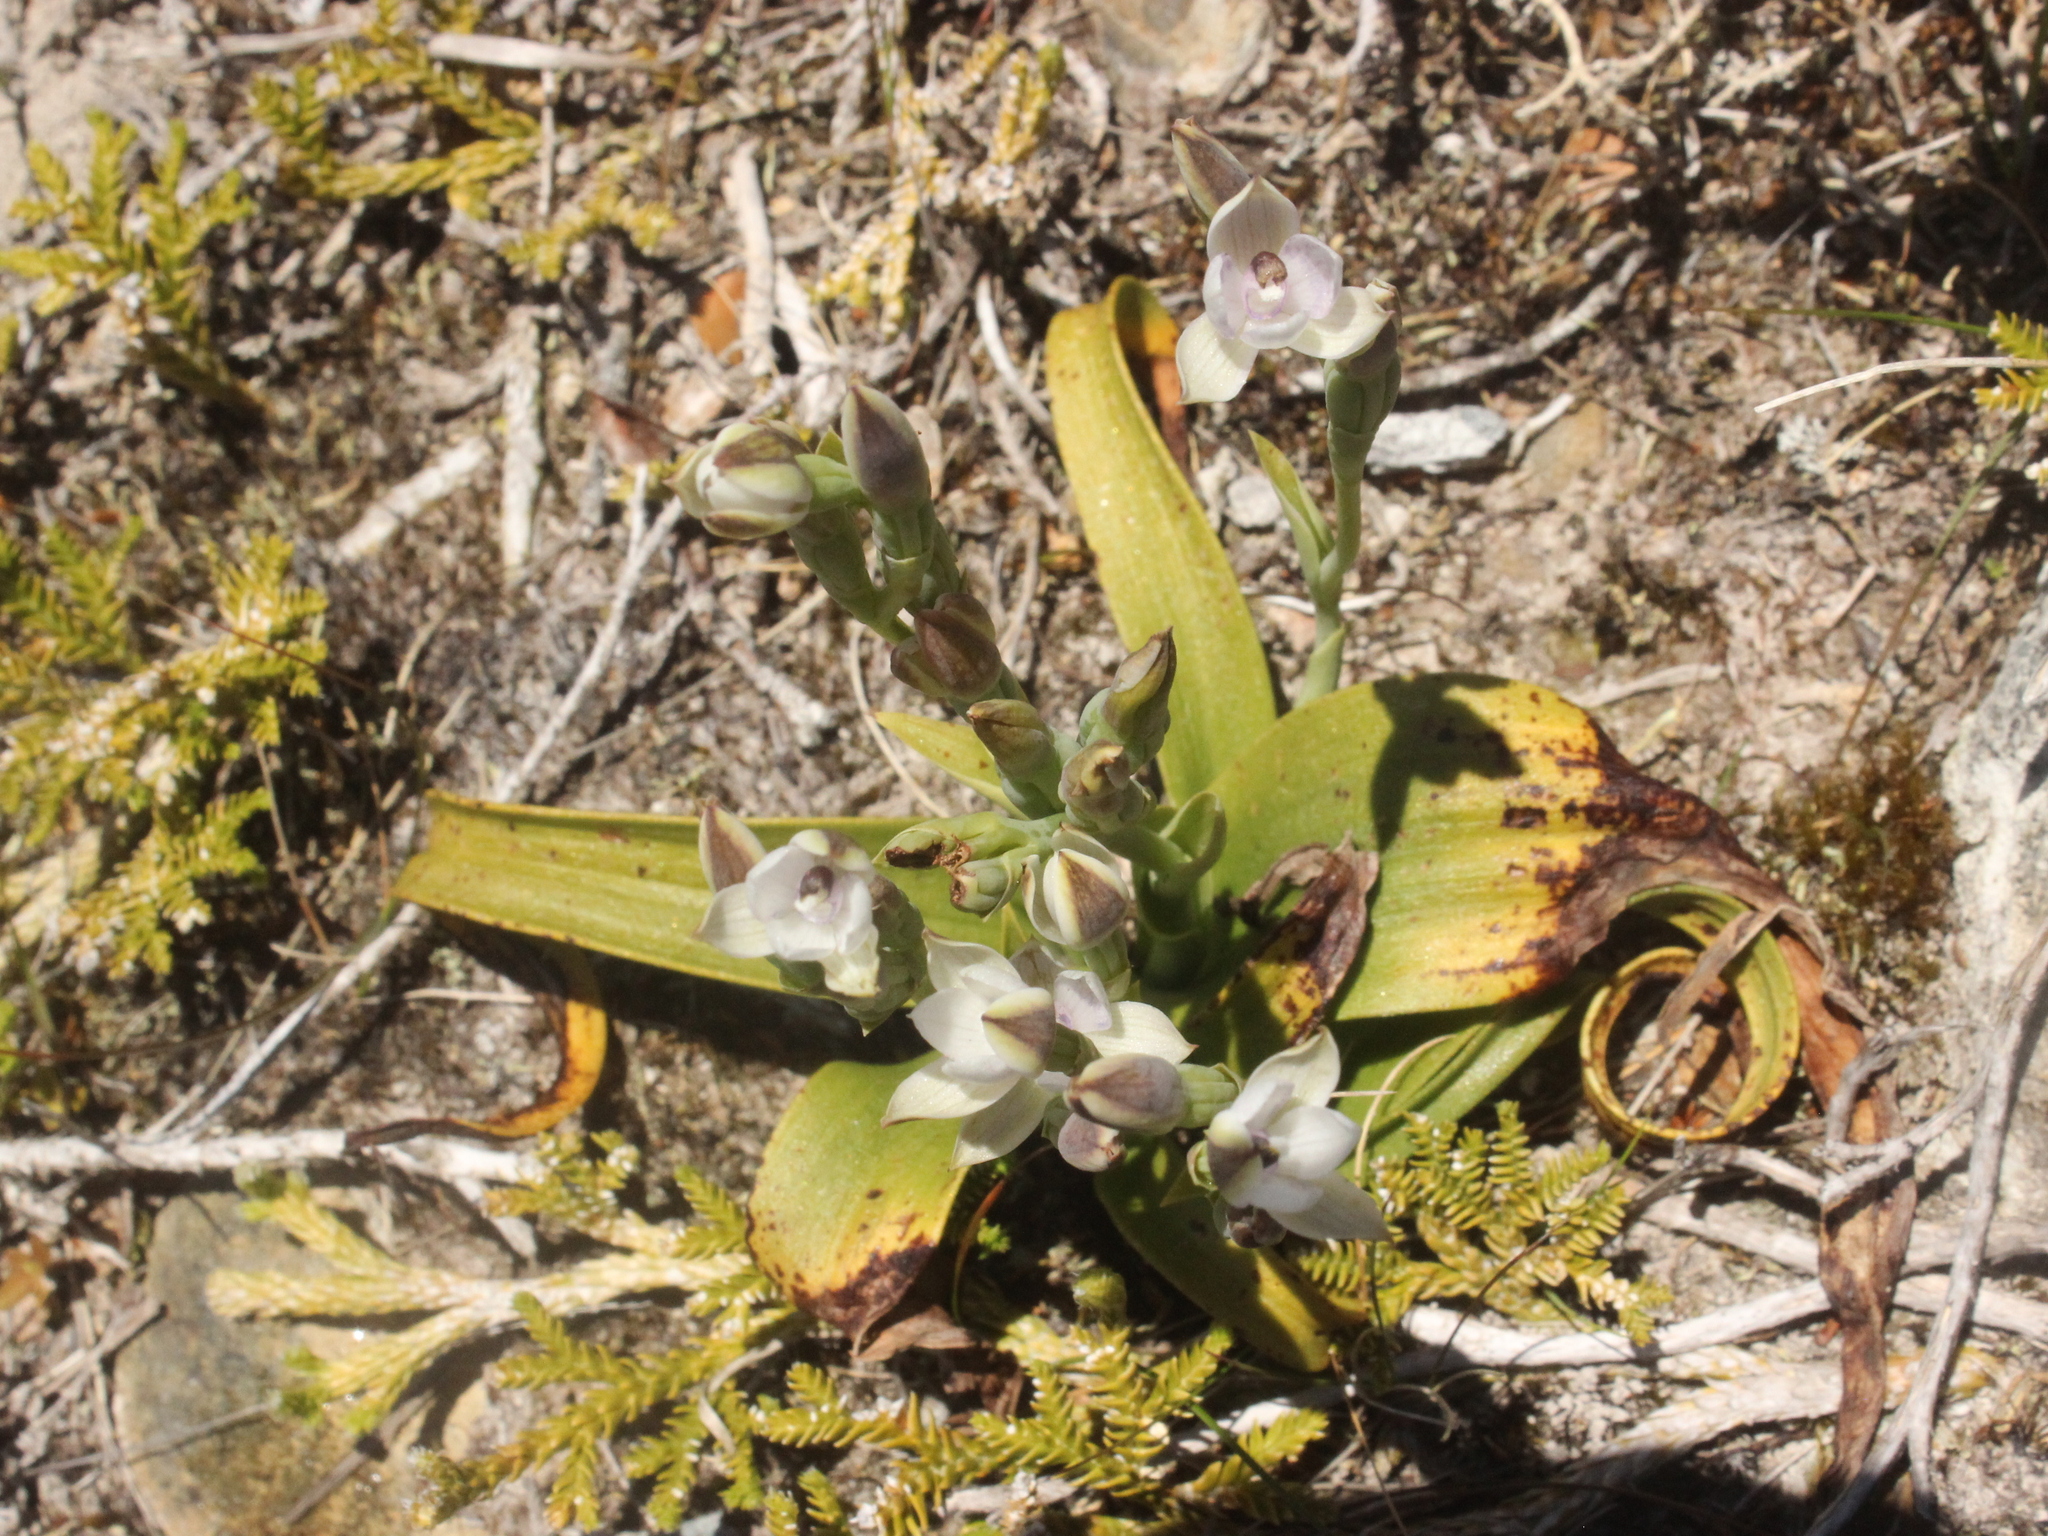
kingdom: Plantae
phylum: Tracheophyta
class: Liliopsida
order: Asparagales
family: Orchidaceae
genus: Thelymitra
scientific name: Thelymitra longifolia
